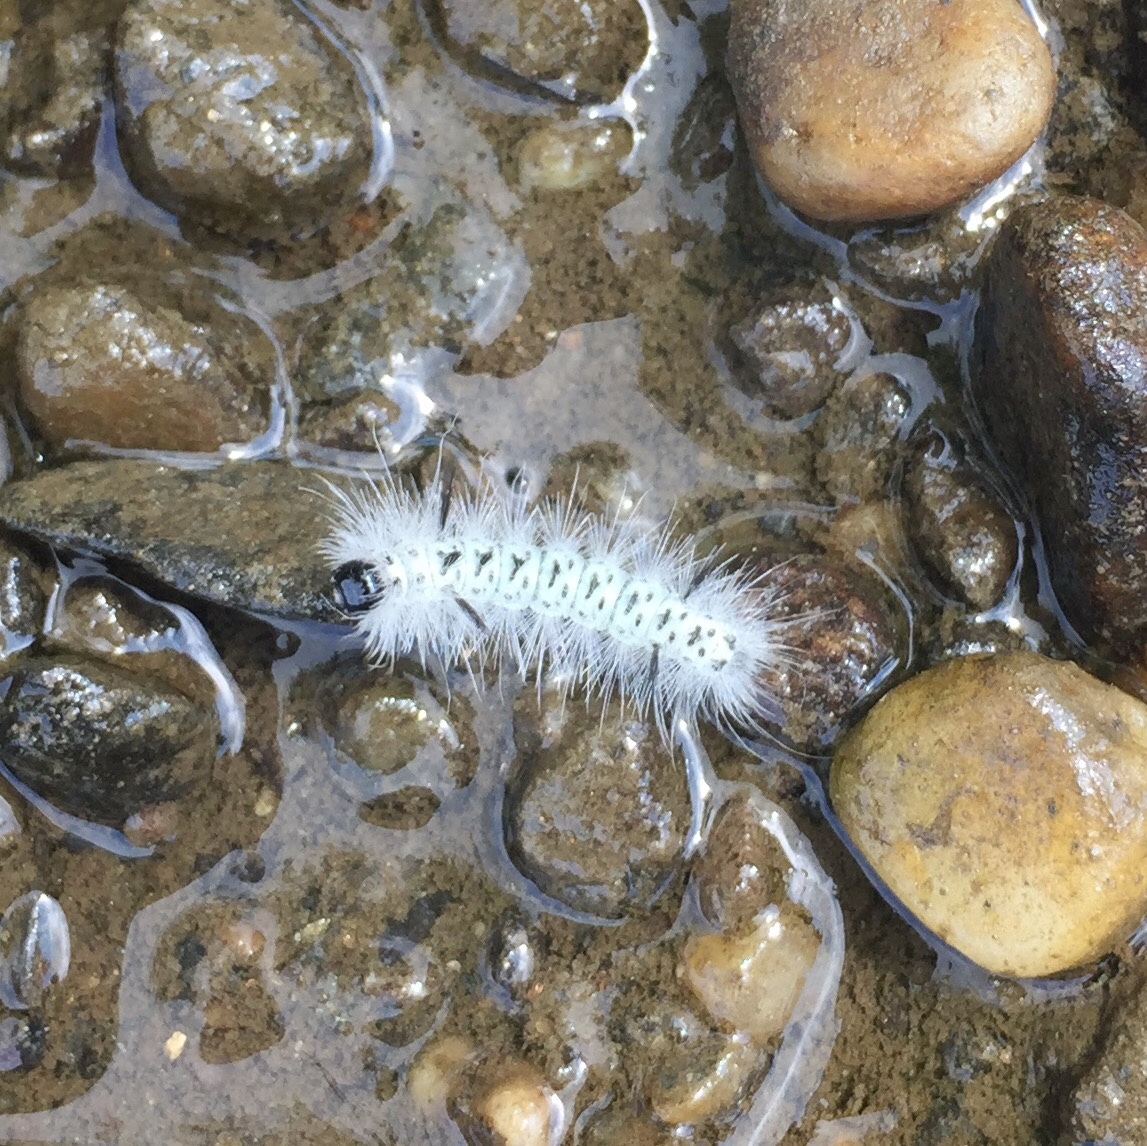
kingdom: Animalia
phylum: Arthropoda
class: Insecta
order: Lepidoptera
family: Erebidae
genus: Lophocampa
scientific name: Lophocampa caryae
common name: Hickory tussock moth
